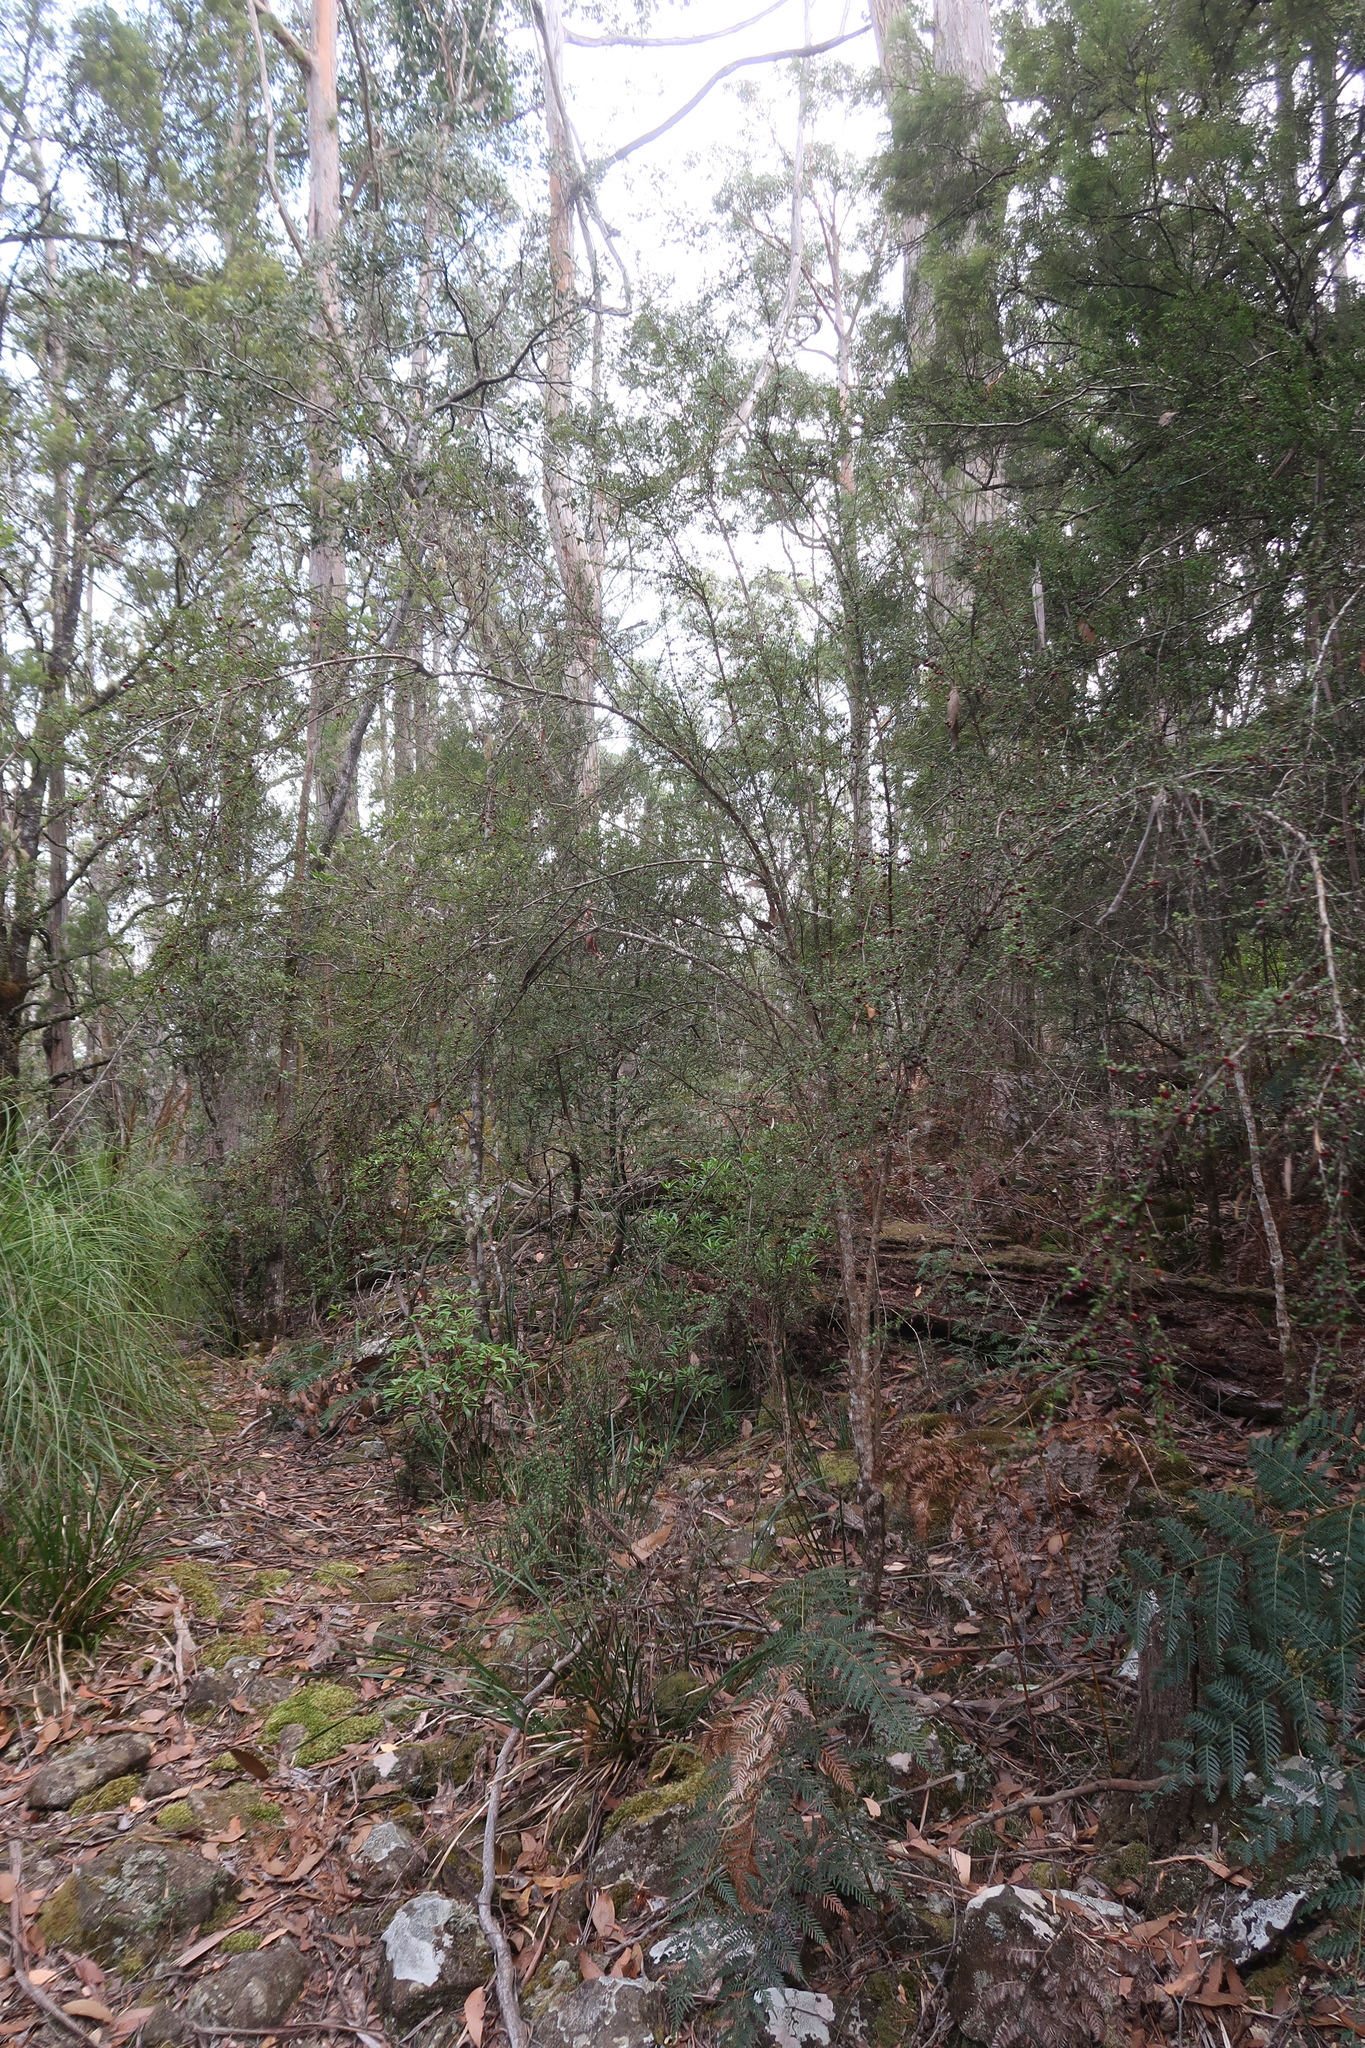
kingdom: Plantae
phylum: Tracheophyta
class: Magnoliopsida
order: Gentianales
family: Rubiaceae
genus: Coprosma
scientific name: Coprosma quadrifida
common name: Prickly currantbush
